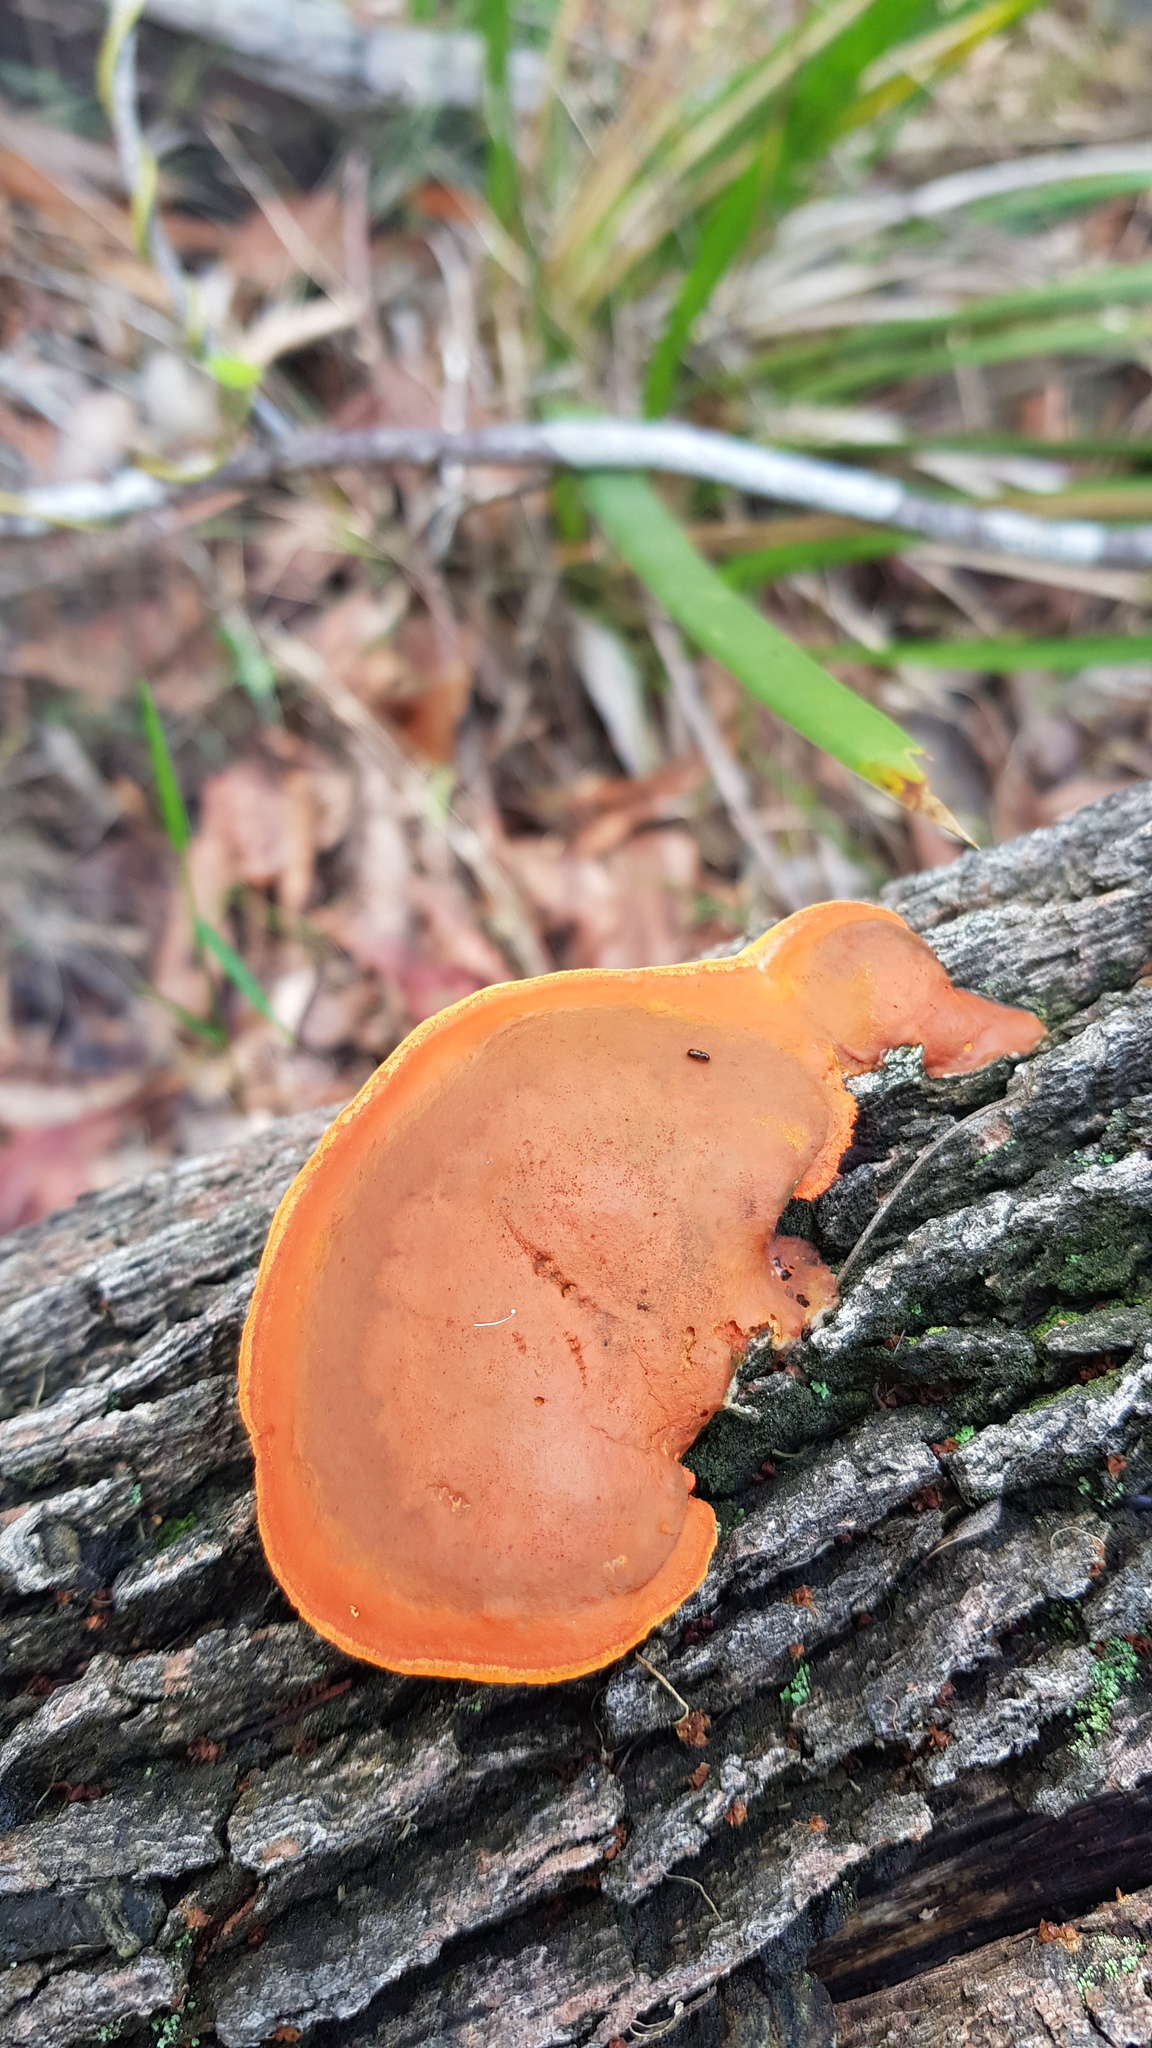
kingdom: Fungi
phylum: Basidiomycota
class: Agaricomycetes
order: Polyporales
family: Polyporaceae
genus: Trametes
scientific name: Trametes coccinea
